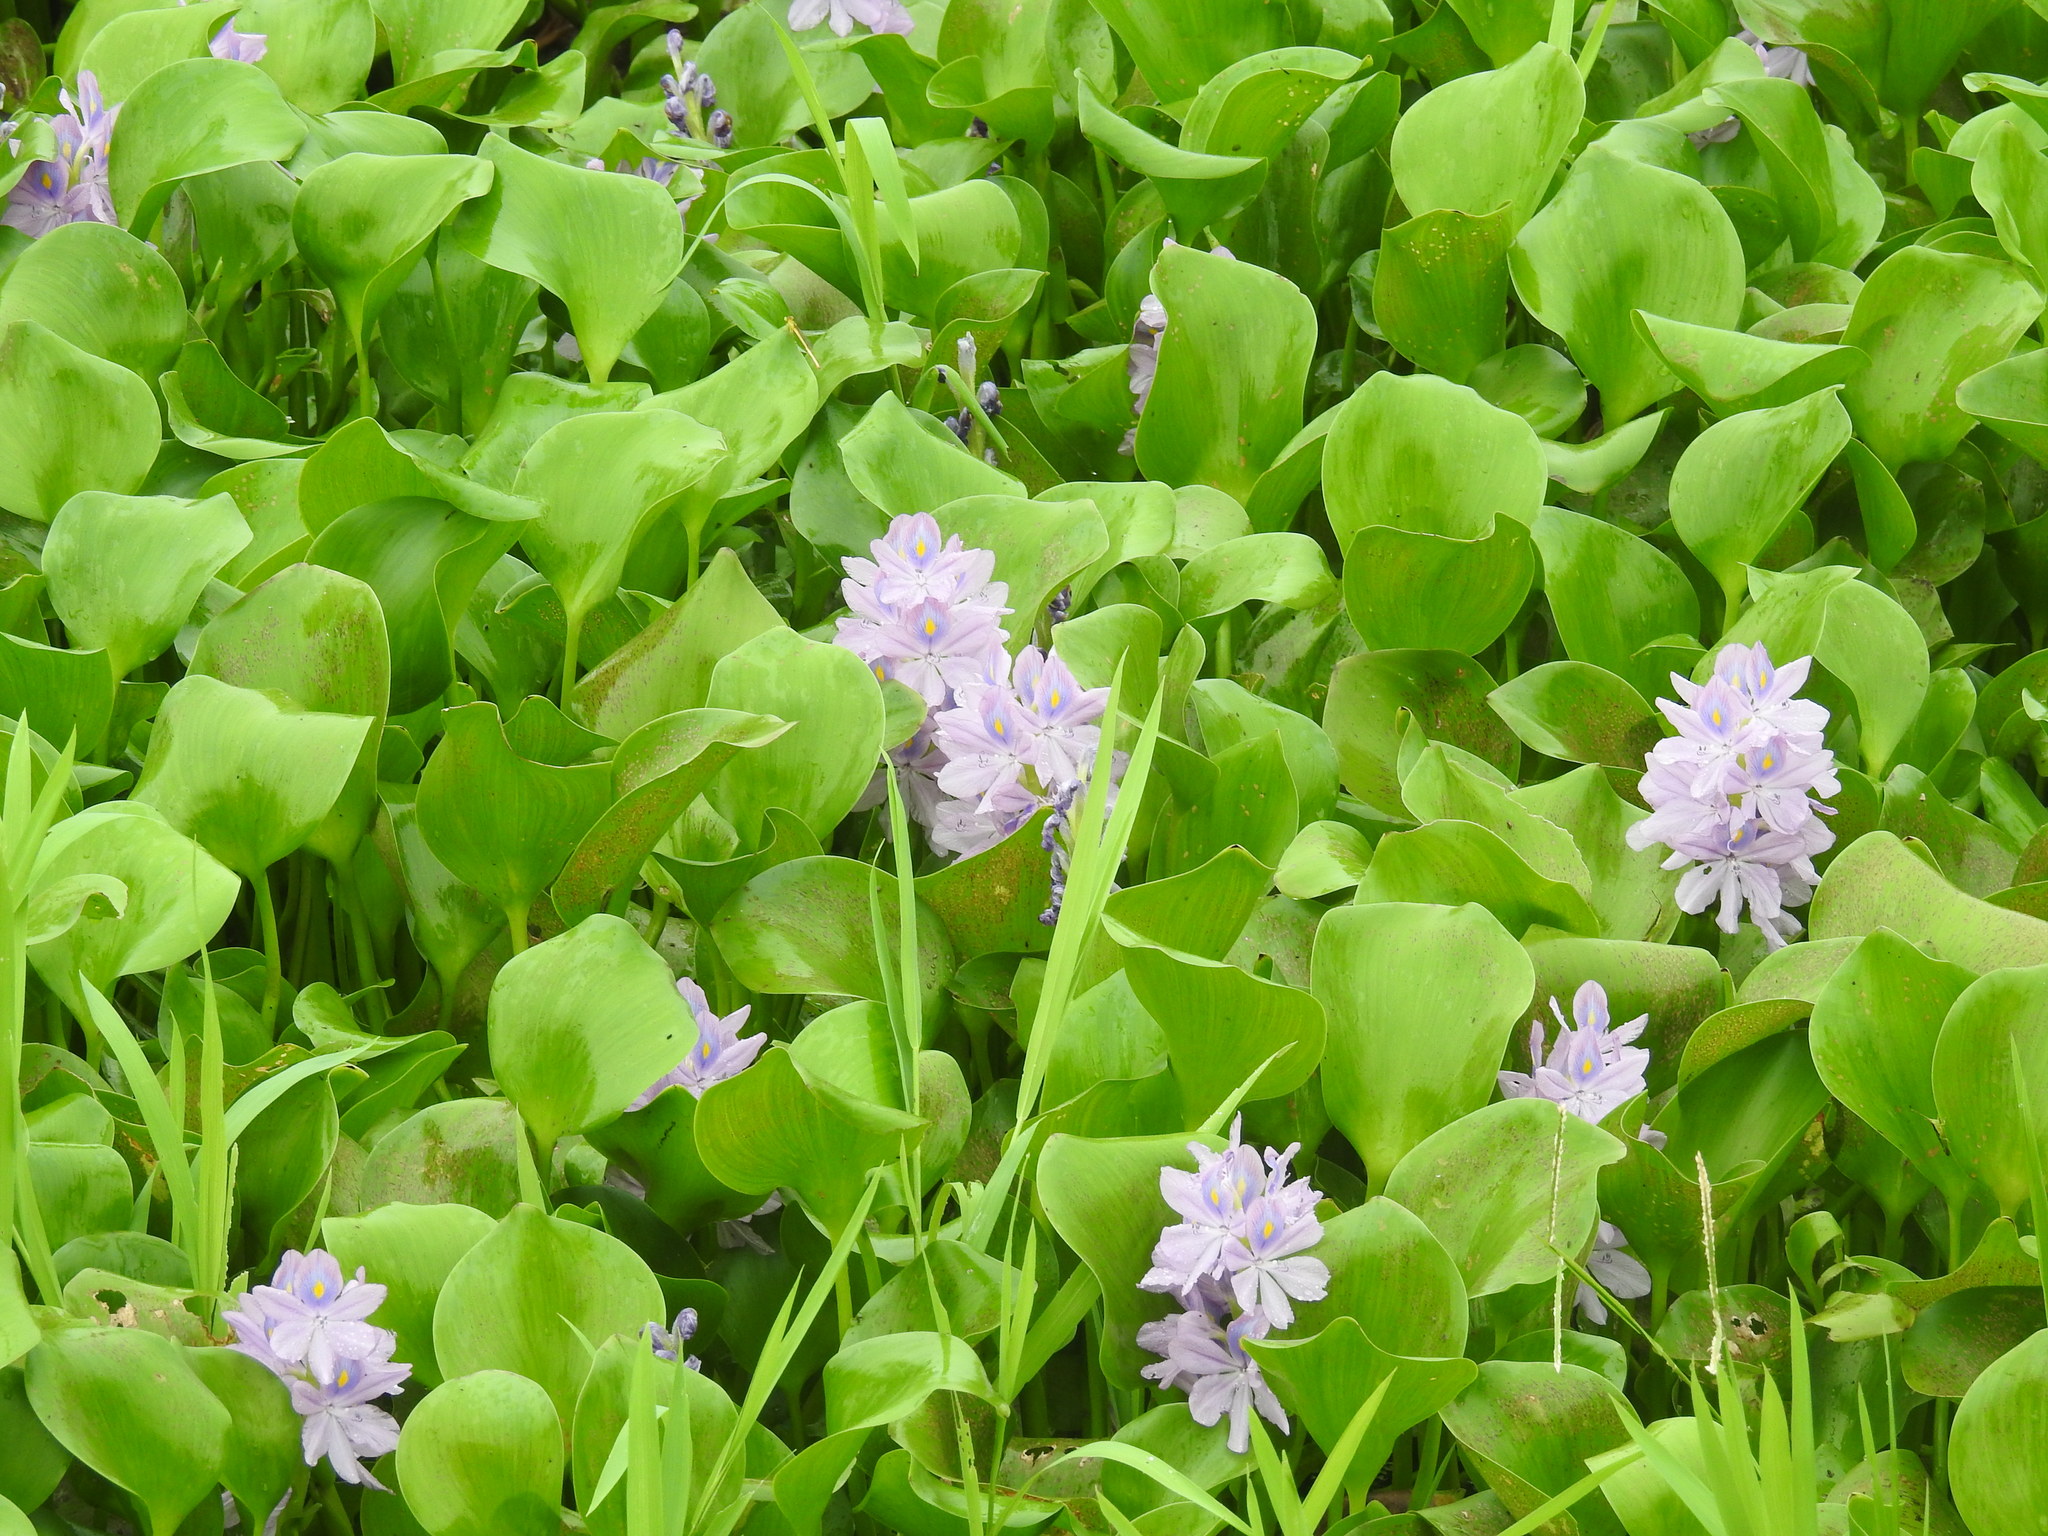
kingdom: Plantae
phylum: Tracheophyta
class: Liliopsida
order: Commelinales
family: Pontederiaceae
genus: Pontederia
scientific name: Pontederia crassipes
